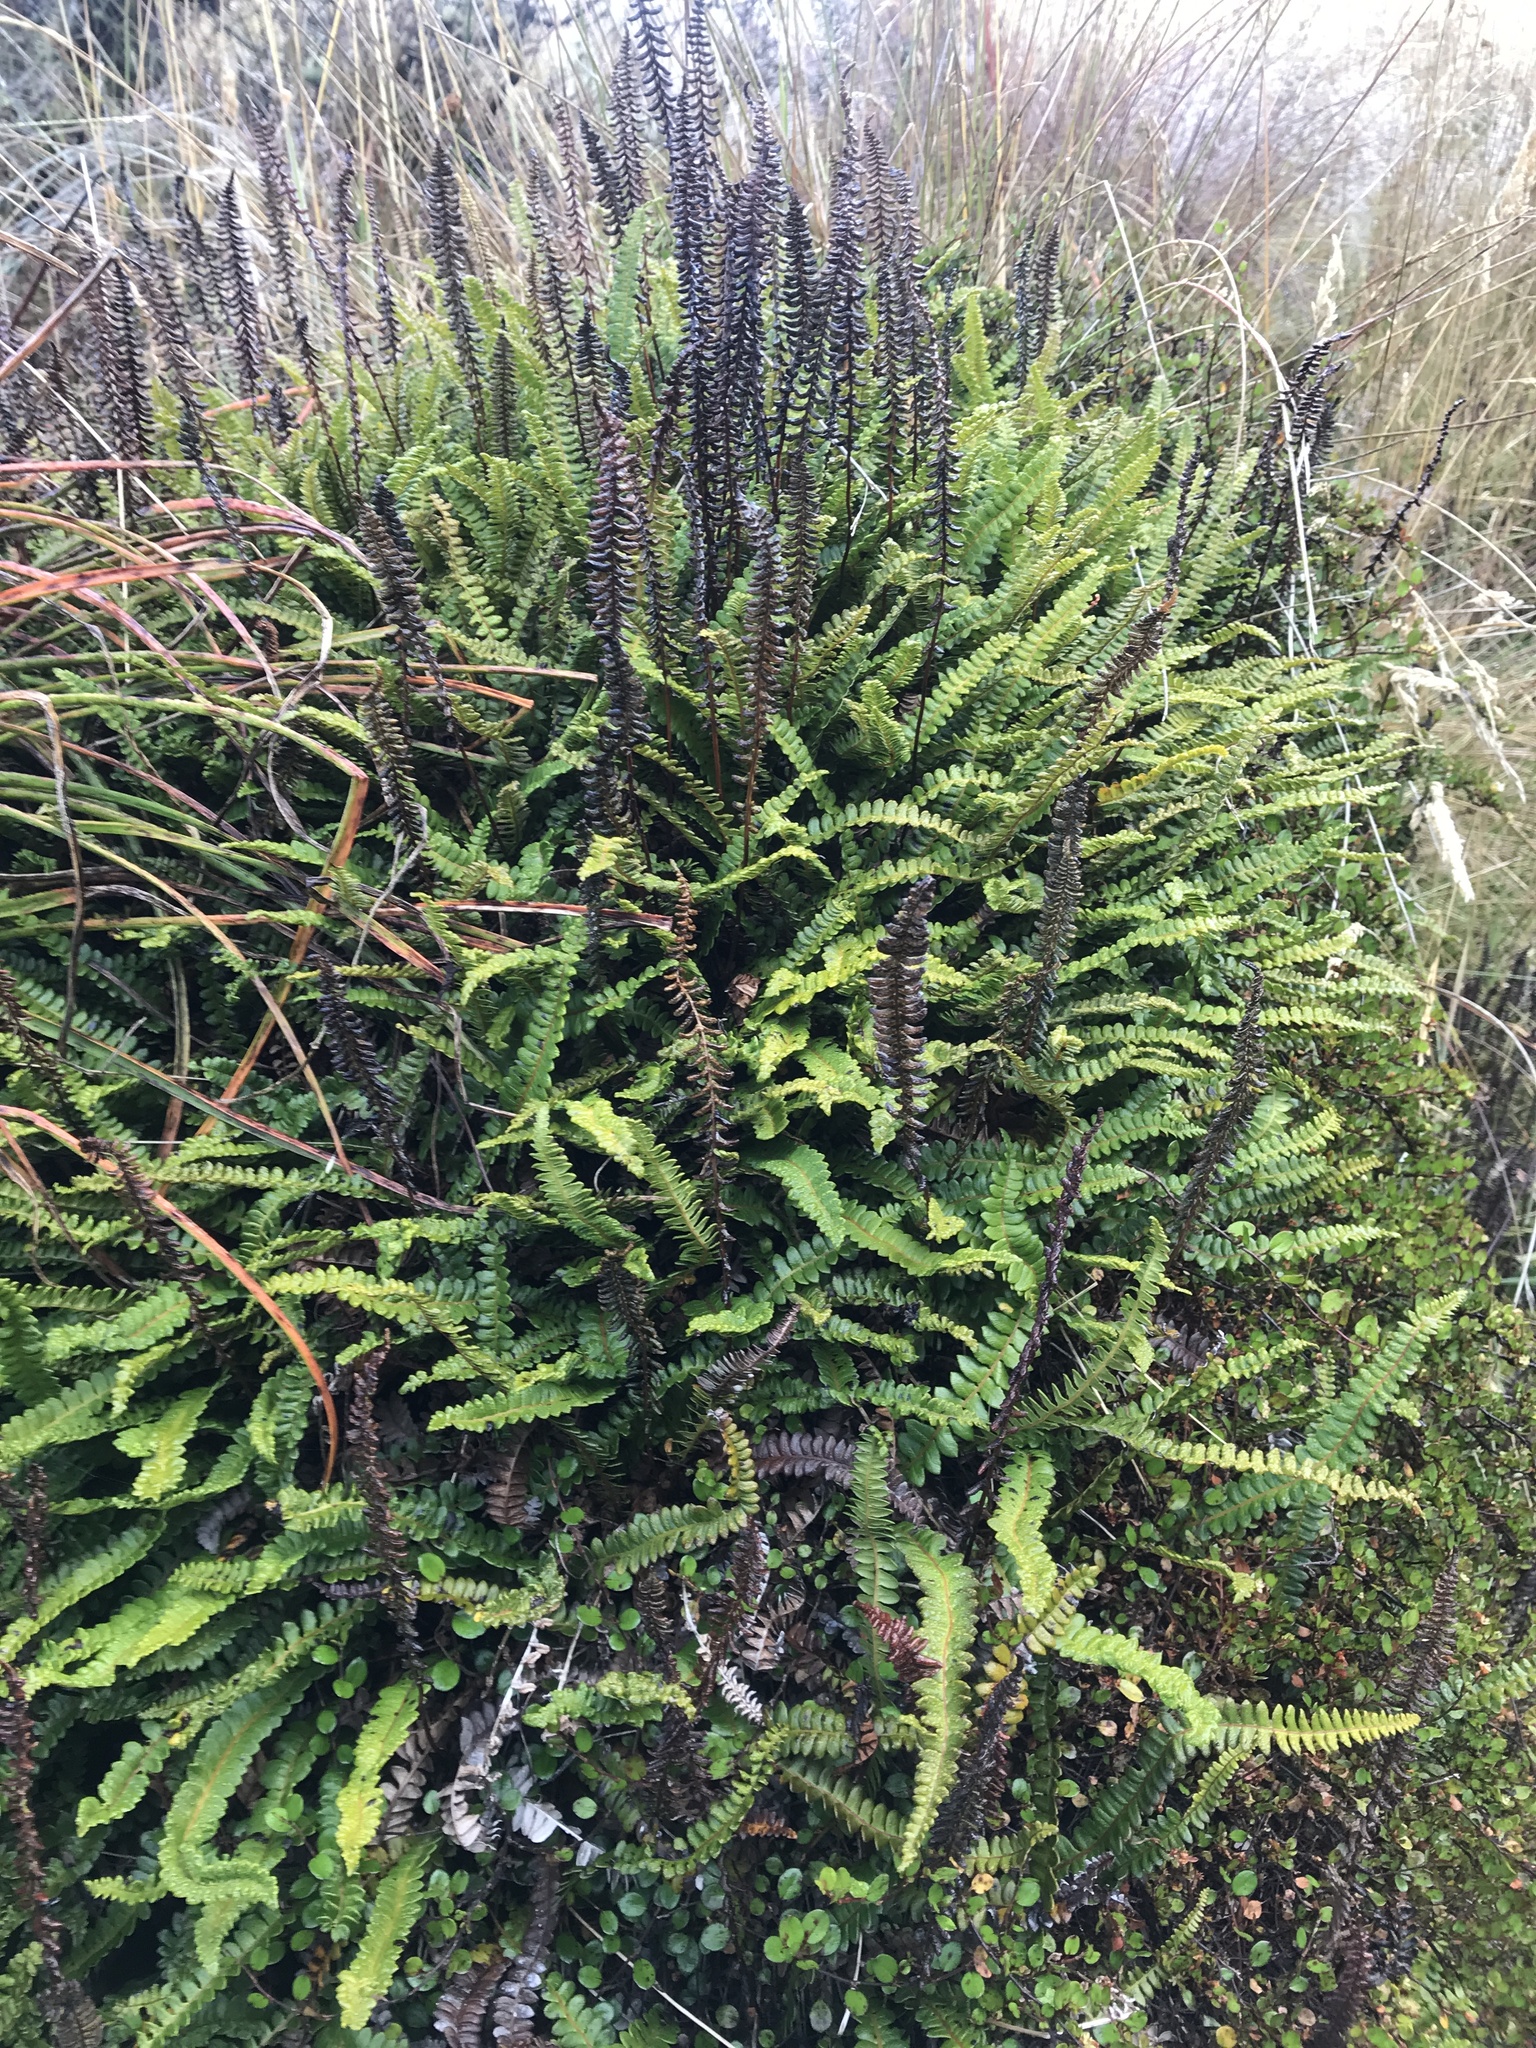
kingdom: Plantae
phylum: Tracheophyta
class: Polypodiopsida
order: Polypodiales
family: Blechnaceae
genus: Austroblechnum
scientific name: Austroblechnum penna-marina
